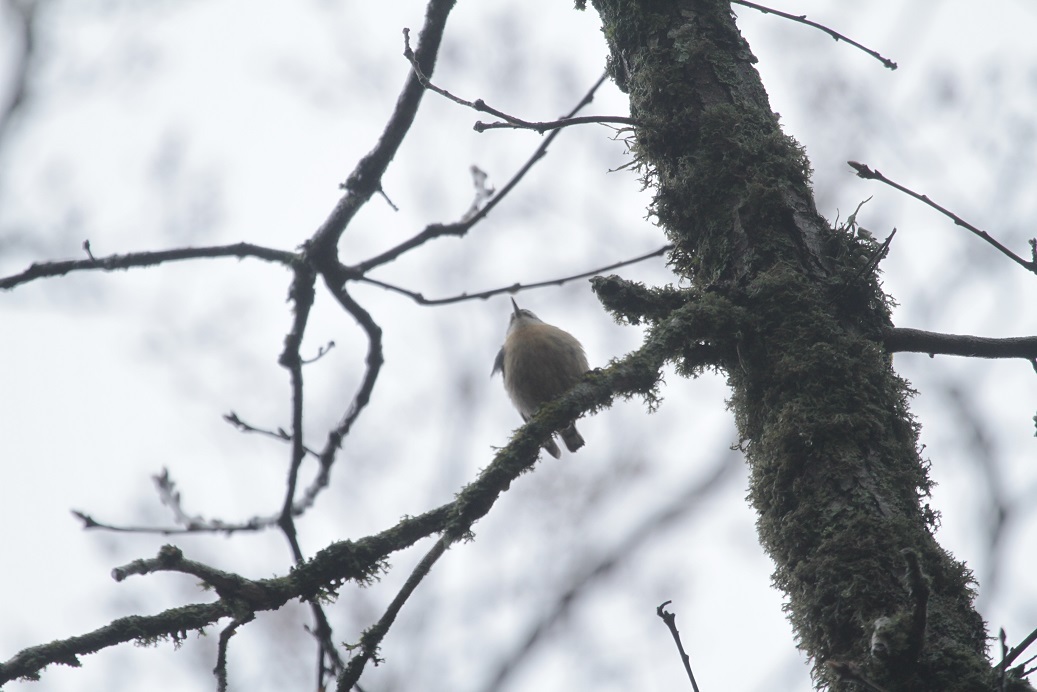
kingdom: Animalia
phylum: Chordata
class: Aves
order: Passeriformes
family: Sittidae
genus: Sitta
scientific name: Sitta ledanti
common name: Algerian nuthatch
